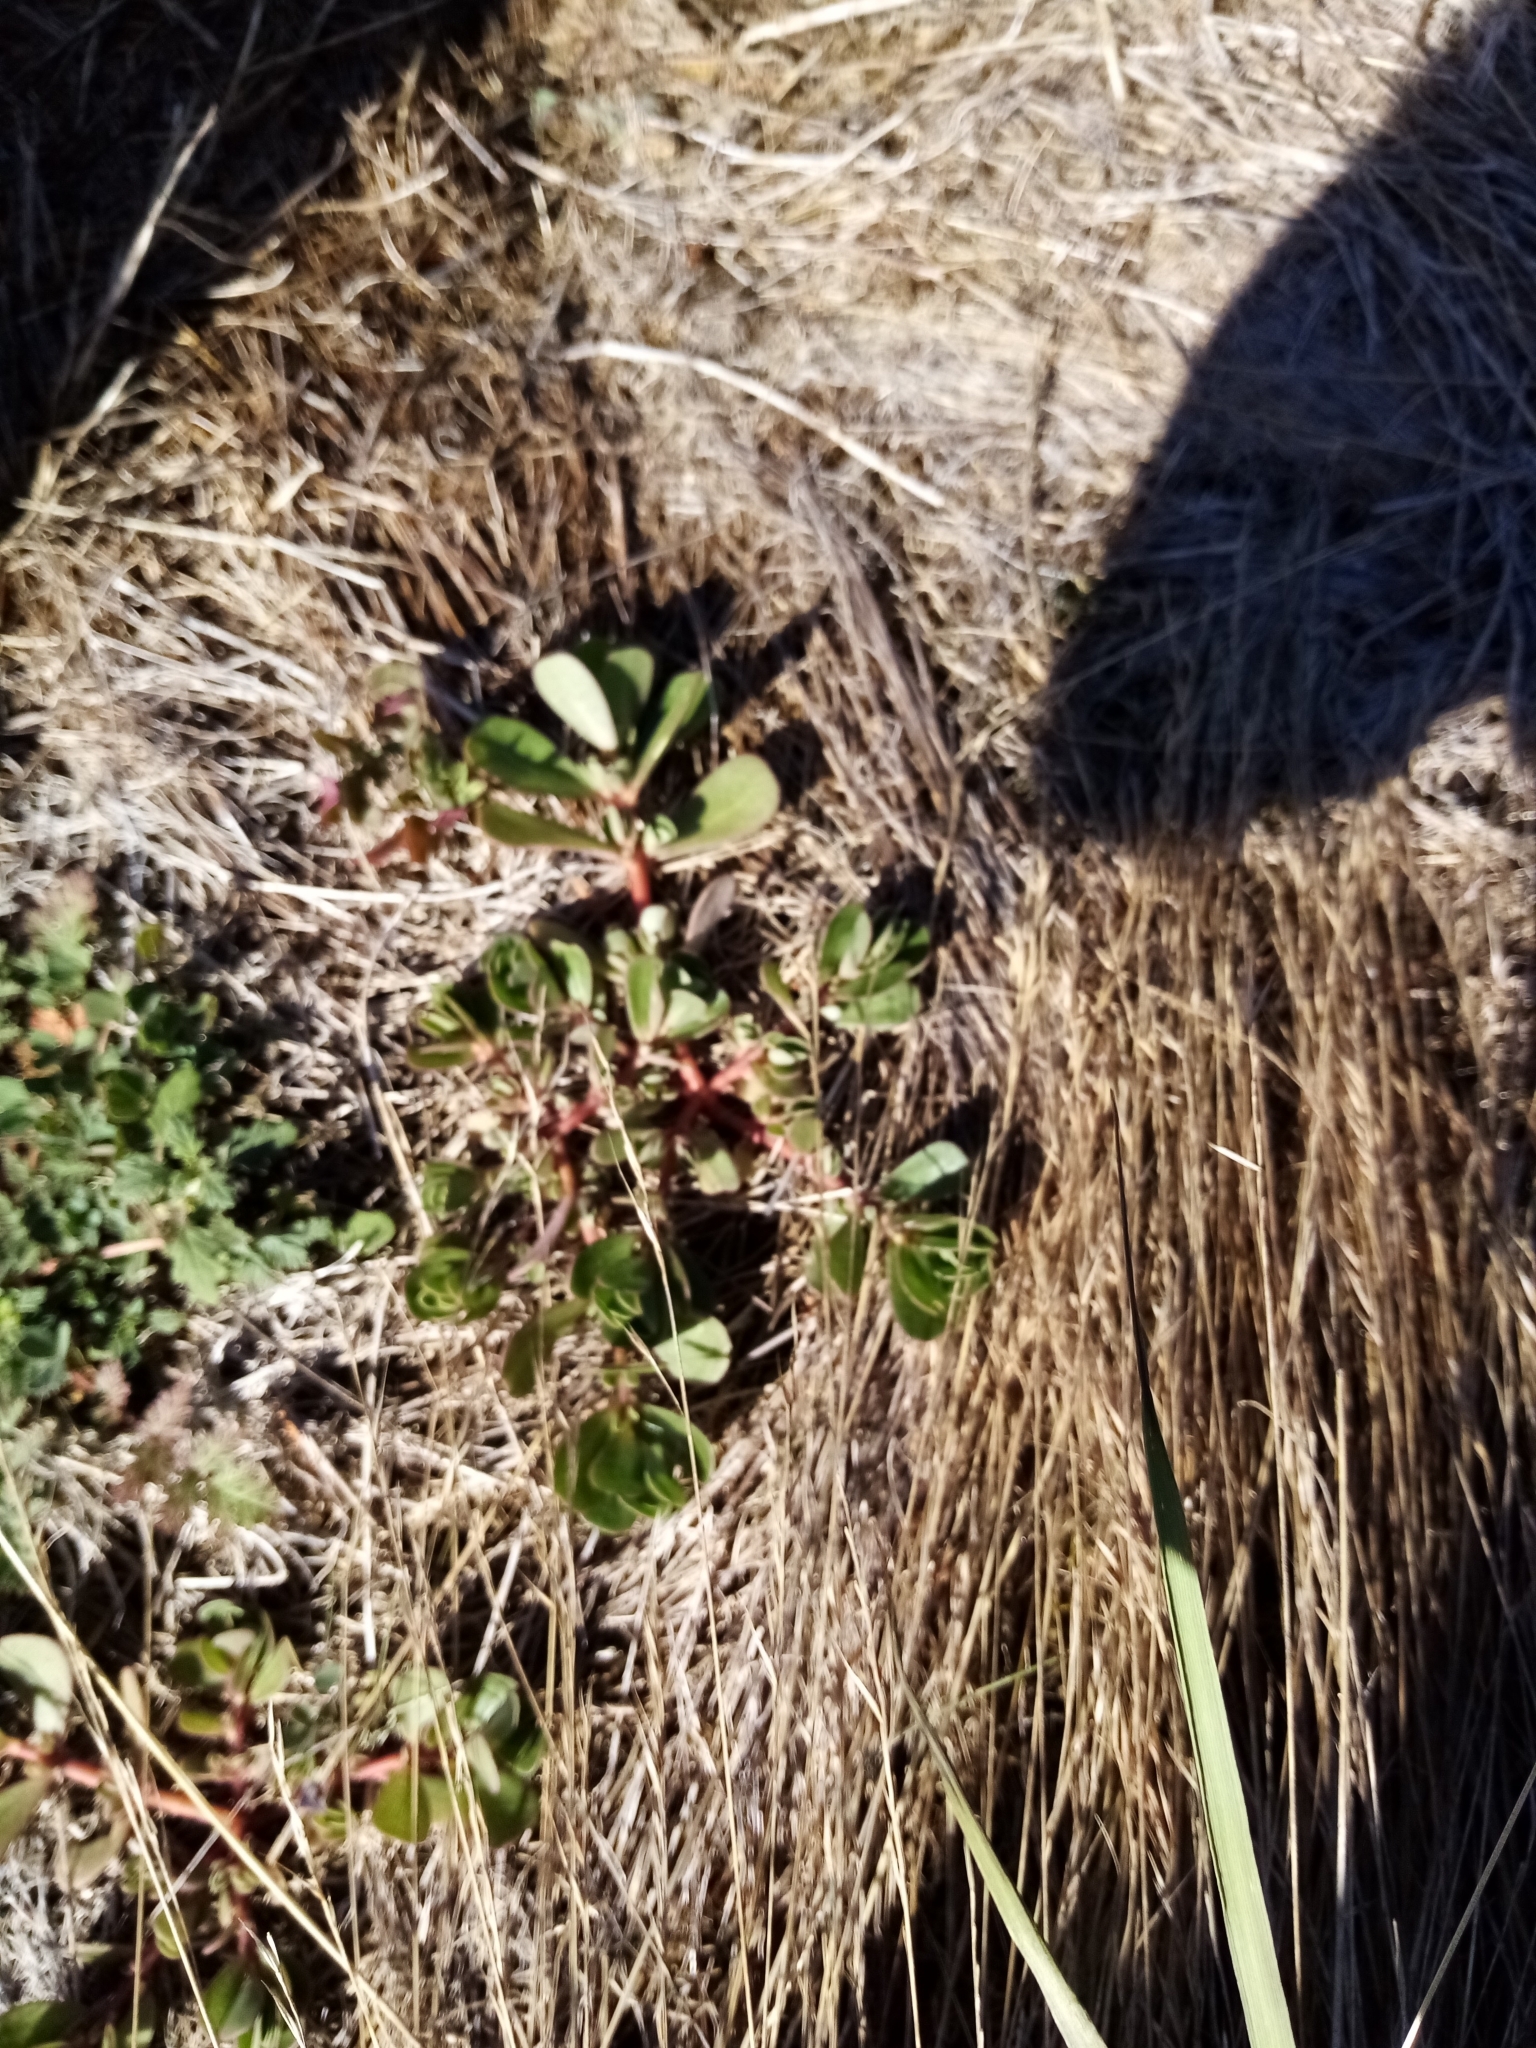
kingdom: Plantae
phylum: Tracheophyta
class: Magnoliopsida
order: Caryophyllales
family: Portulacaceae
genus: Portulaca
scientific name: Portulaca oleracea
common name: Common purslane
